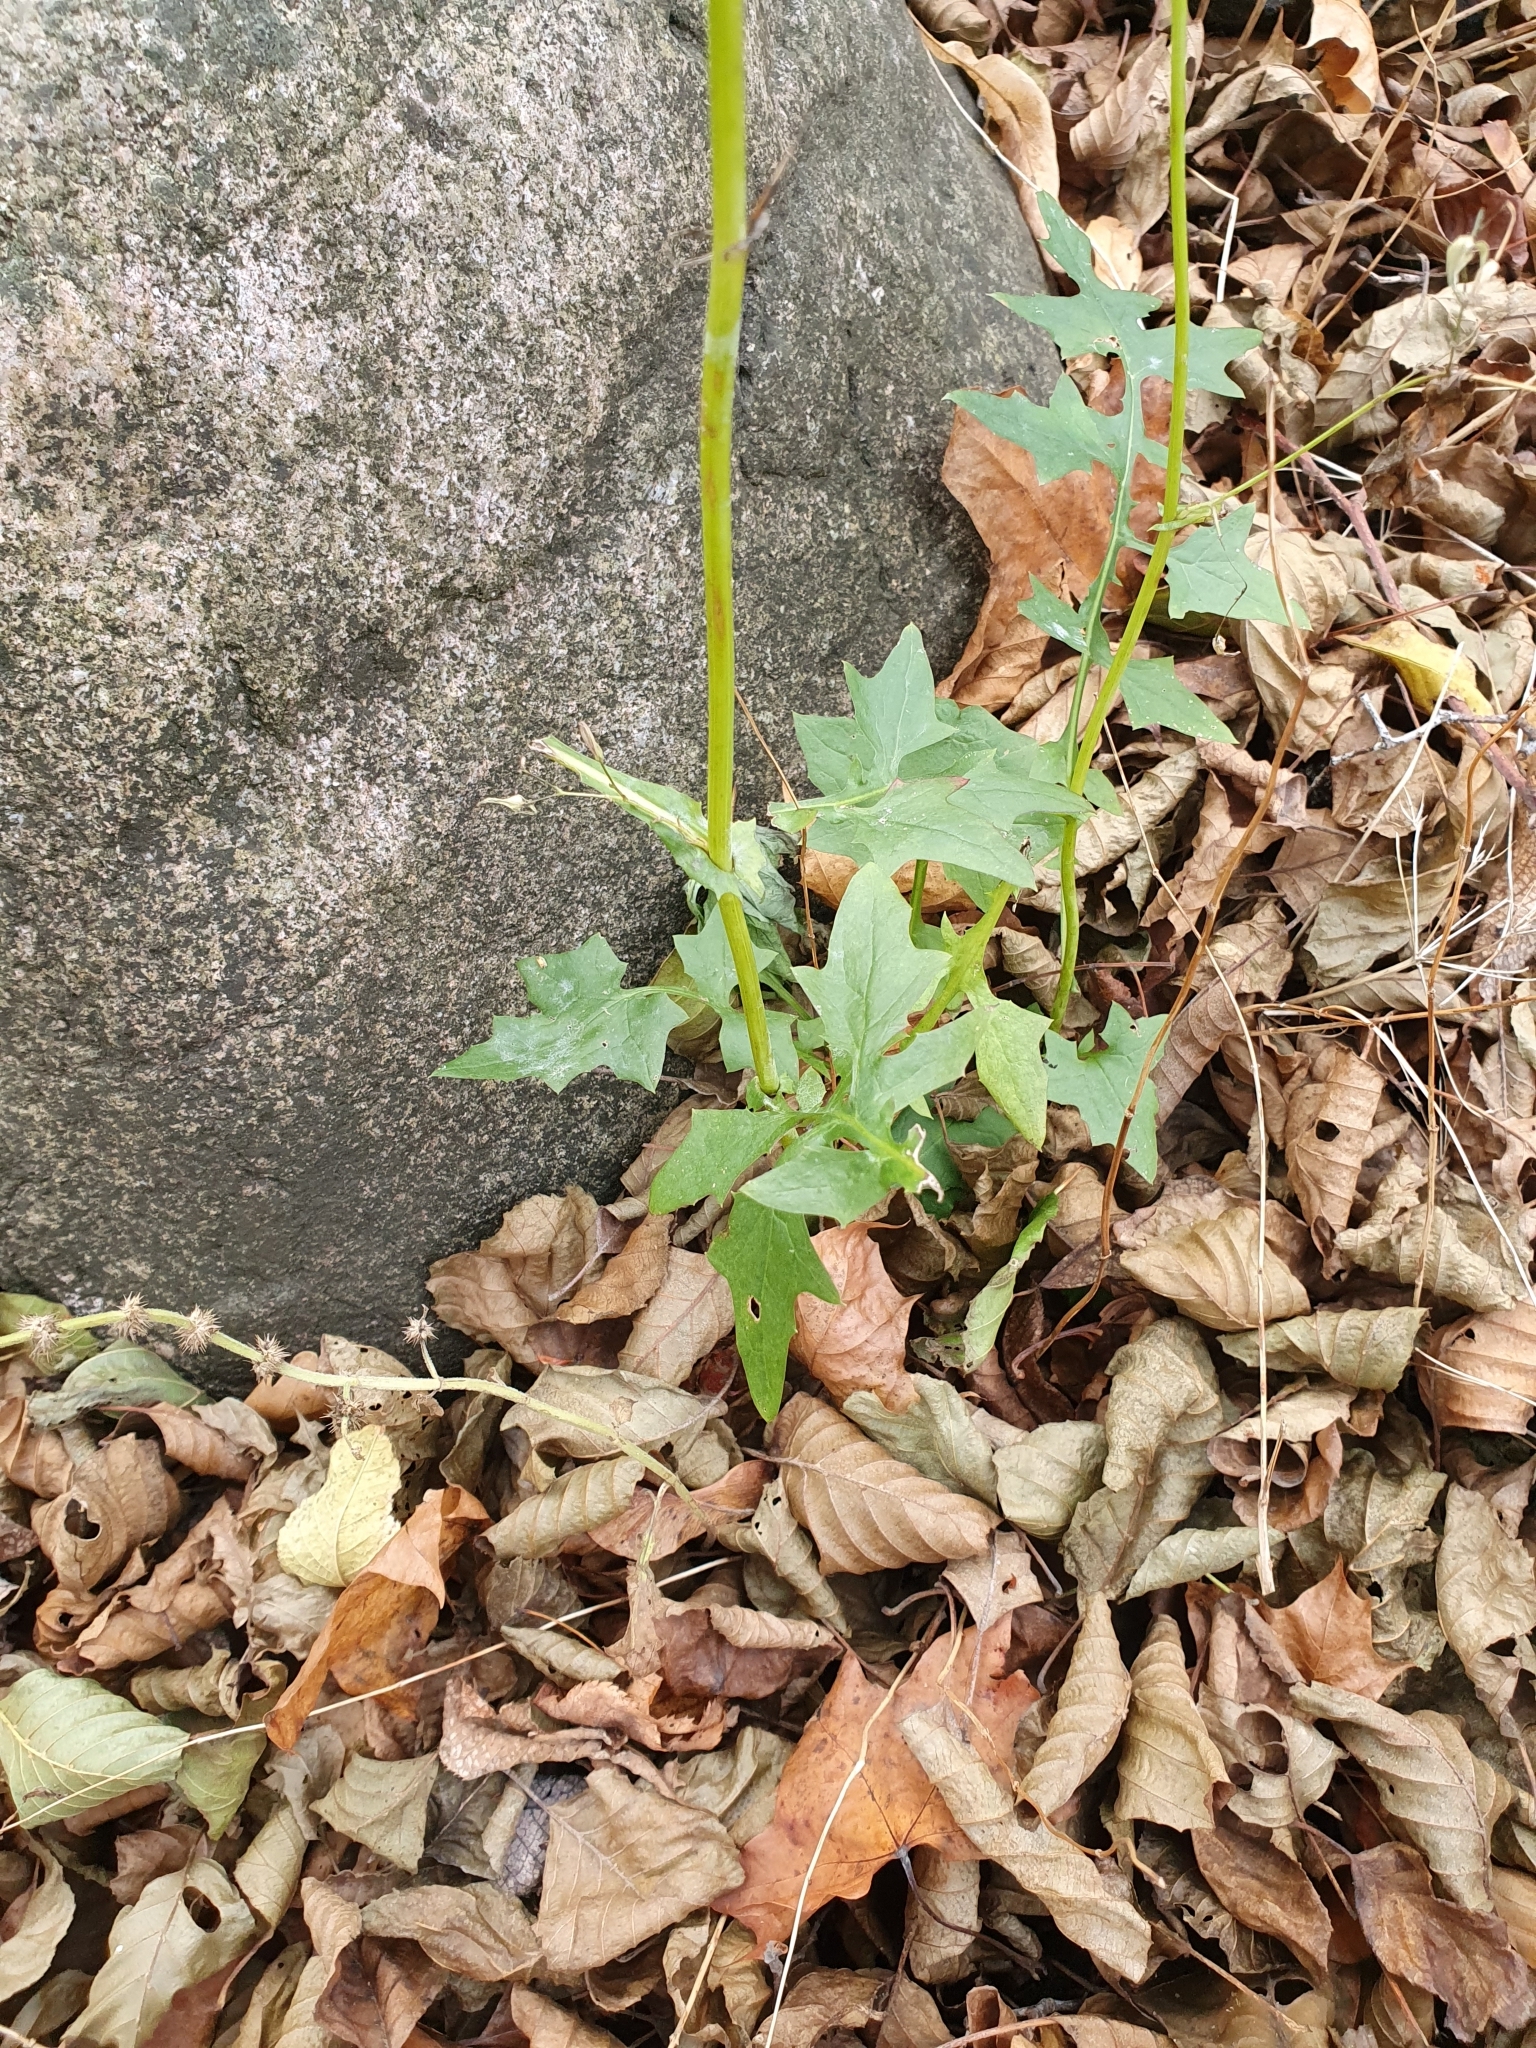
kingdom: Plantae
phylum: Tracheophyta
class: Magnoliopsida
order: Asterales
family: Asteraceae
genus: Mycelis
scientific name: Mycelis muralis
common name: Wall lettuce
